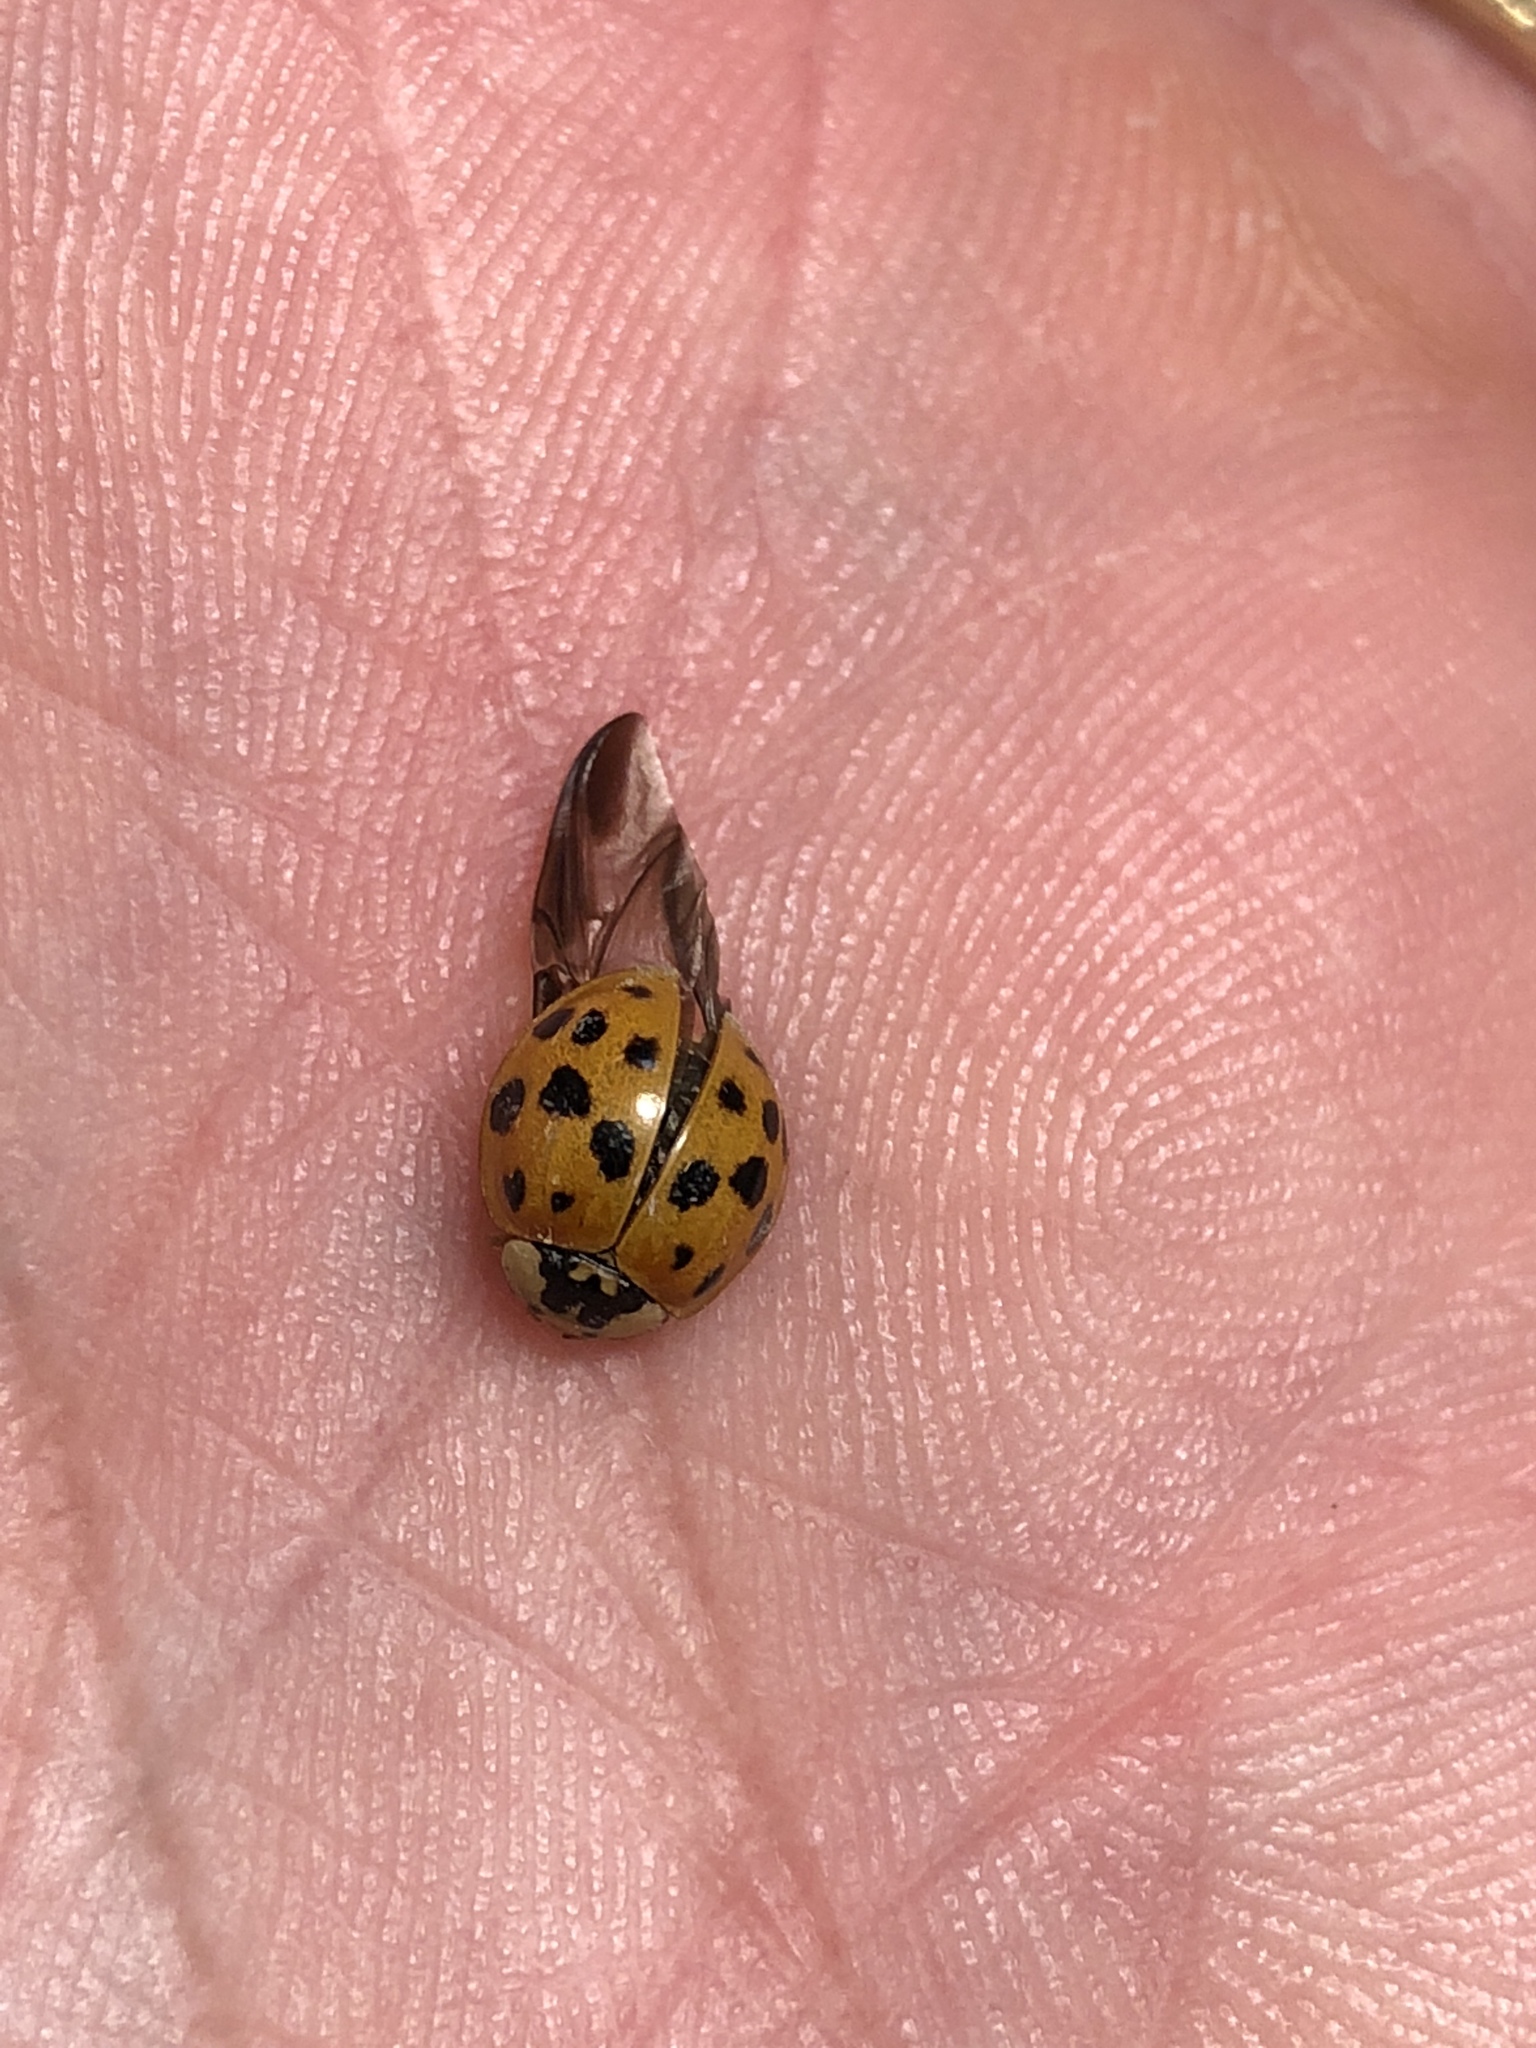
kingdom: Animalia
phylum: Arthropoda
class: Insecta
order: Coleoptera
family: Coccinellidae
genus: Harmonia
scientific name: Harmonia axyridis
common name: Harlequin ladybird
